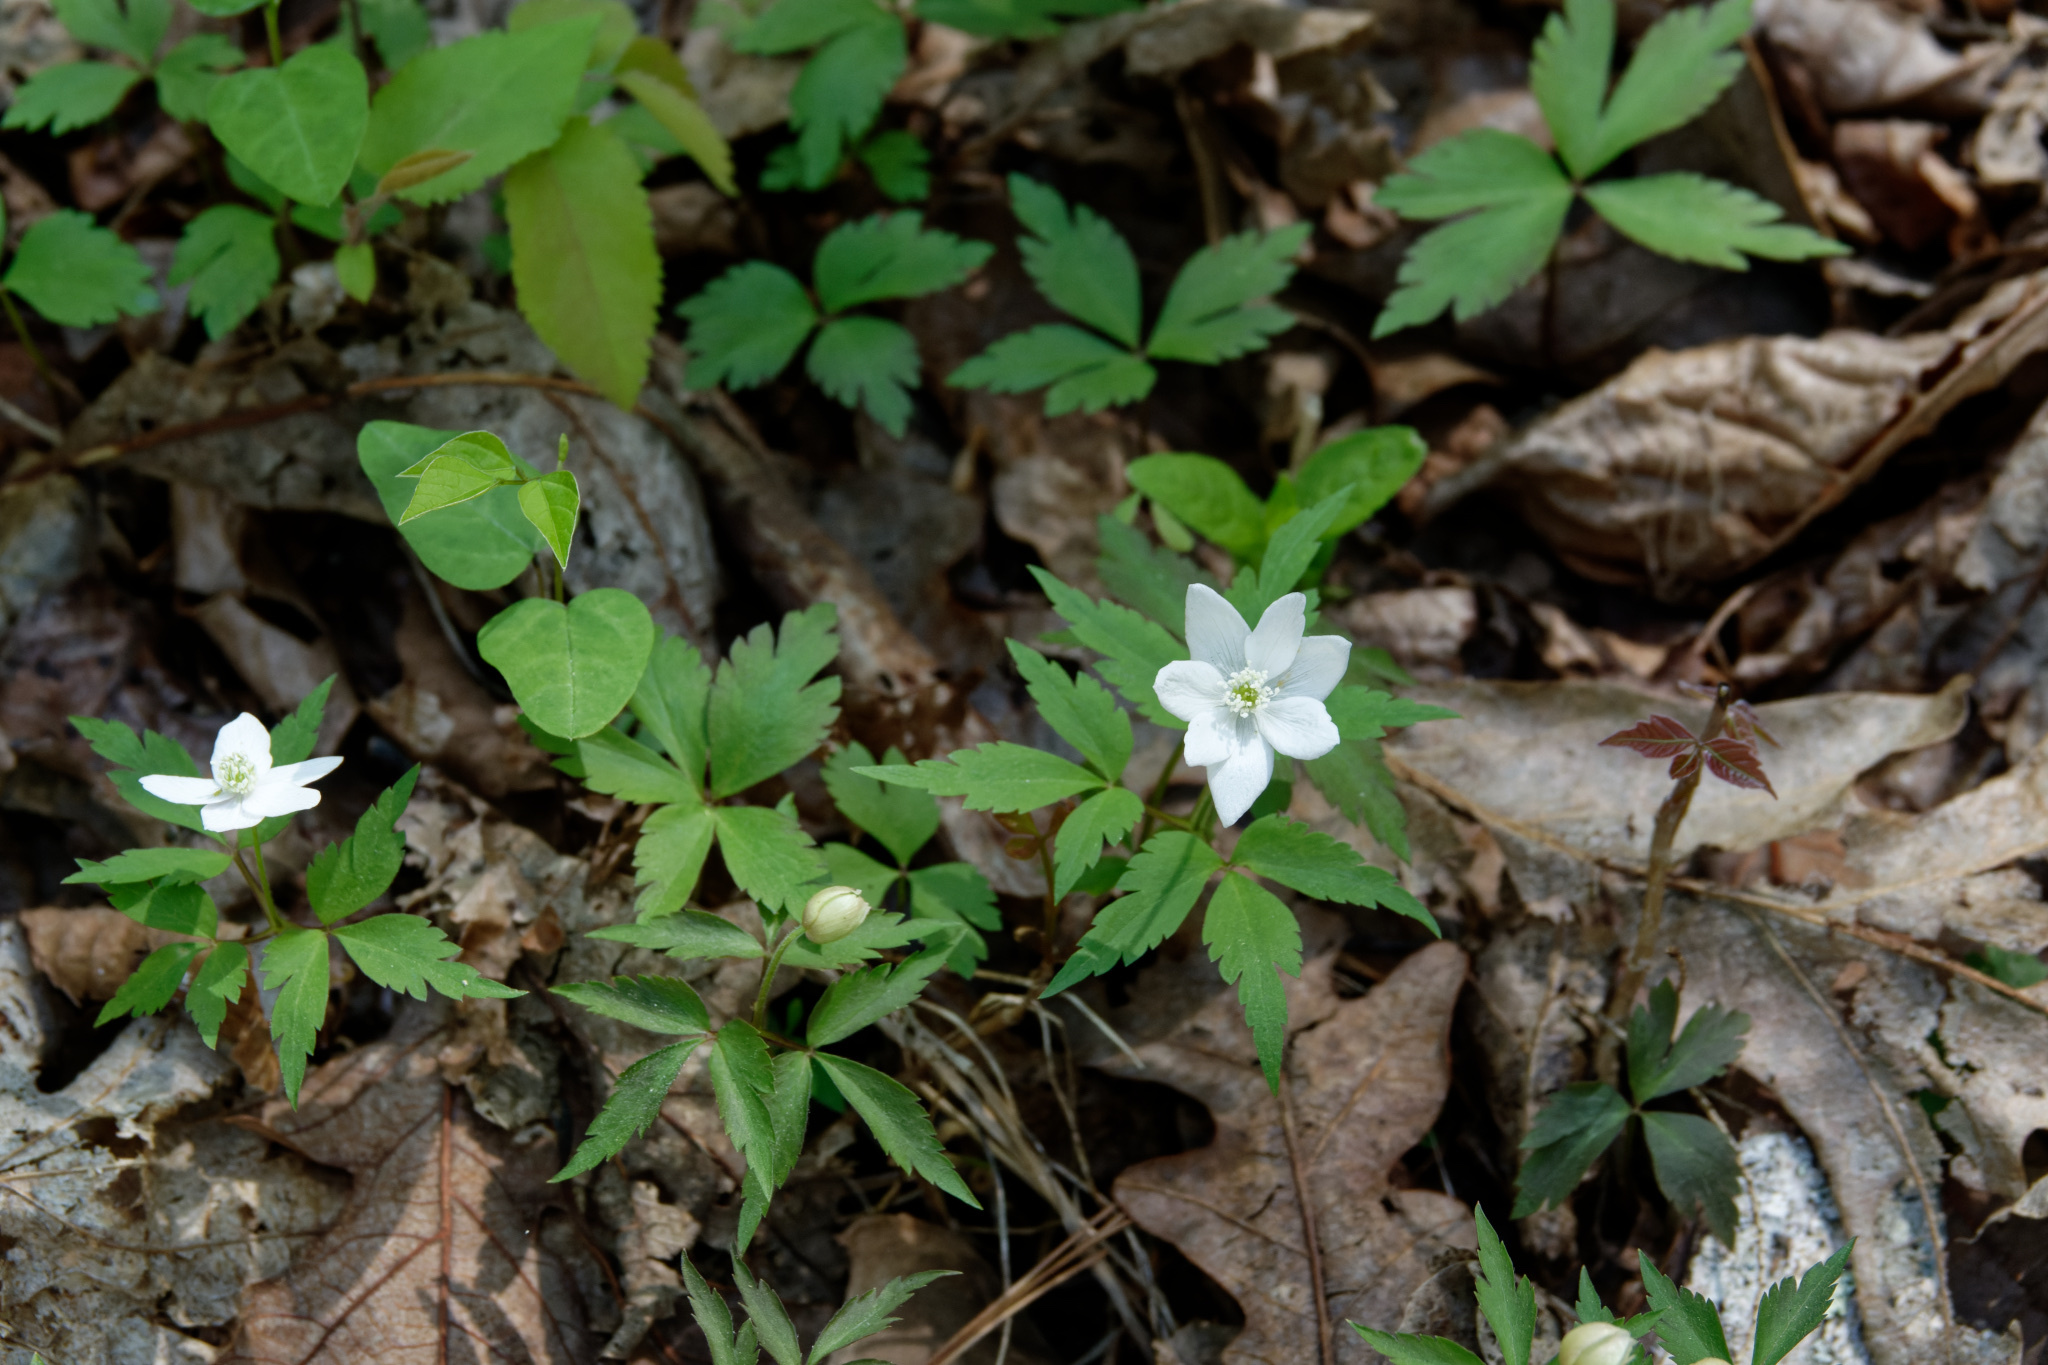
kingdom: Plantae
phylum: Tracheophyta
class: Magnoliopsida
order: Ranunculales
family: Ranunculaceae
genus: Anemone
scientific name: Anemone quinquefolia
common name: Wood anemone
